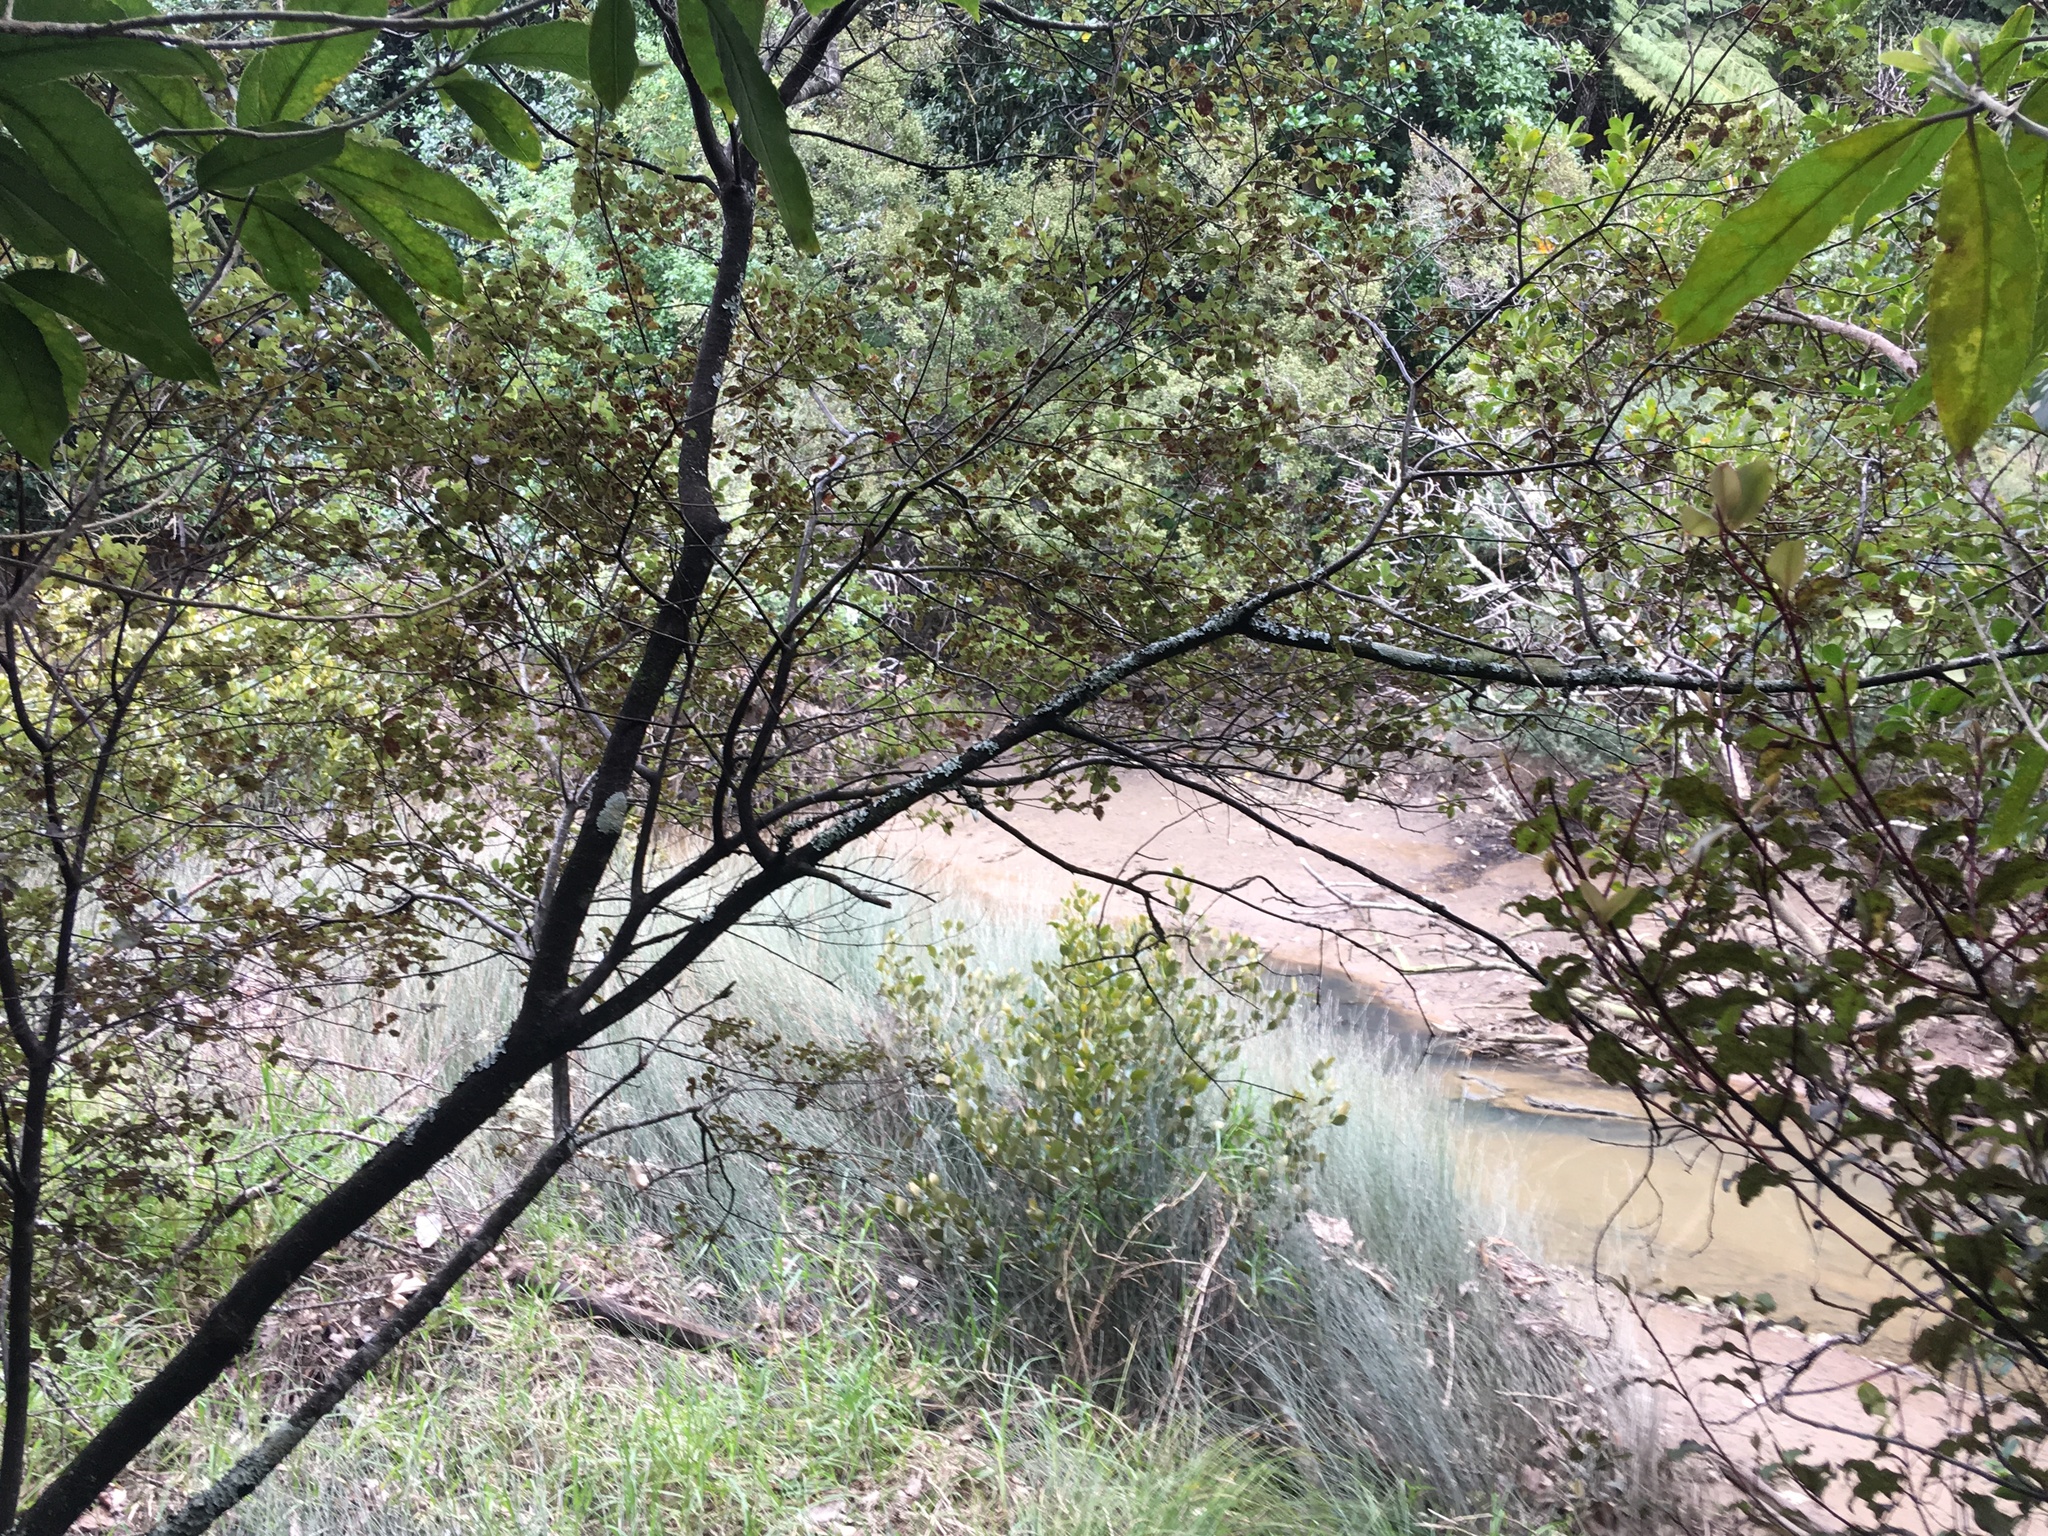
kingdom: Plantae
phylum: Tracheophyta
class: Magnoliopsida
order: Apiales
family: Pittosporaceae
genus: Pittosporum
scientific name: Pittosporum tenuifolium
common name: Kohuhu
